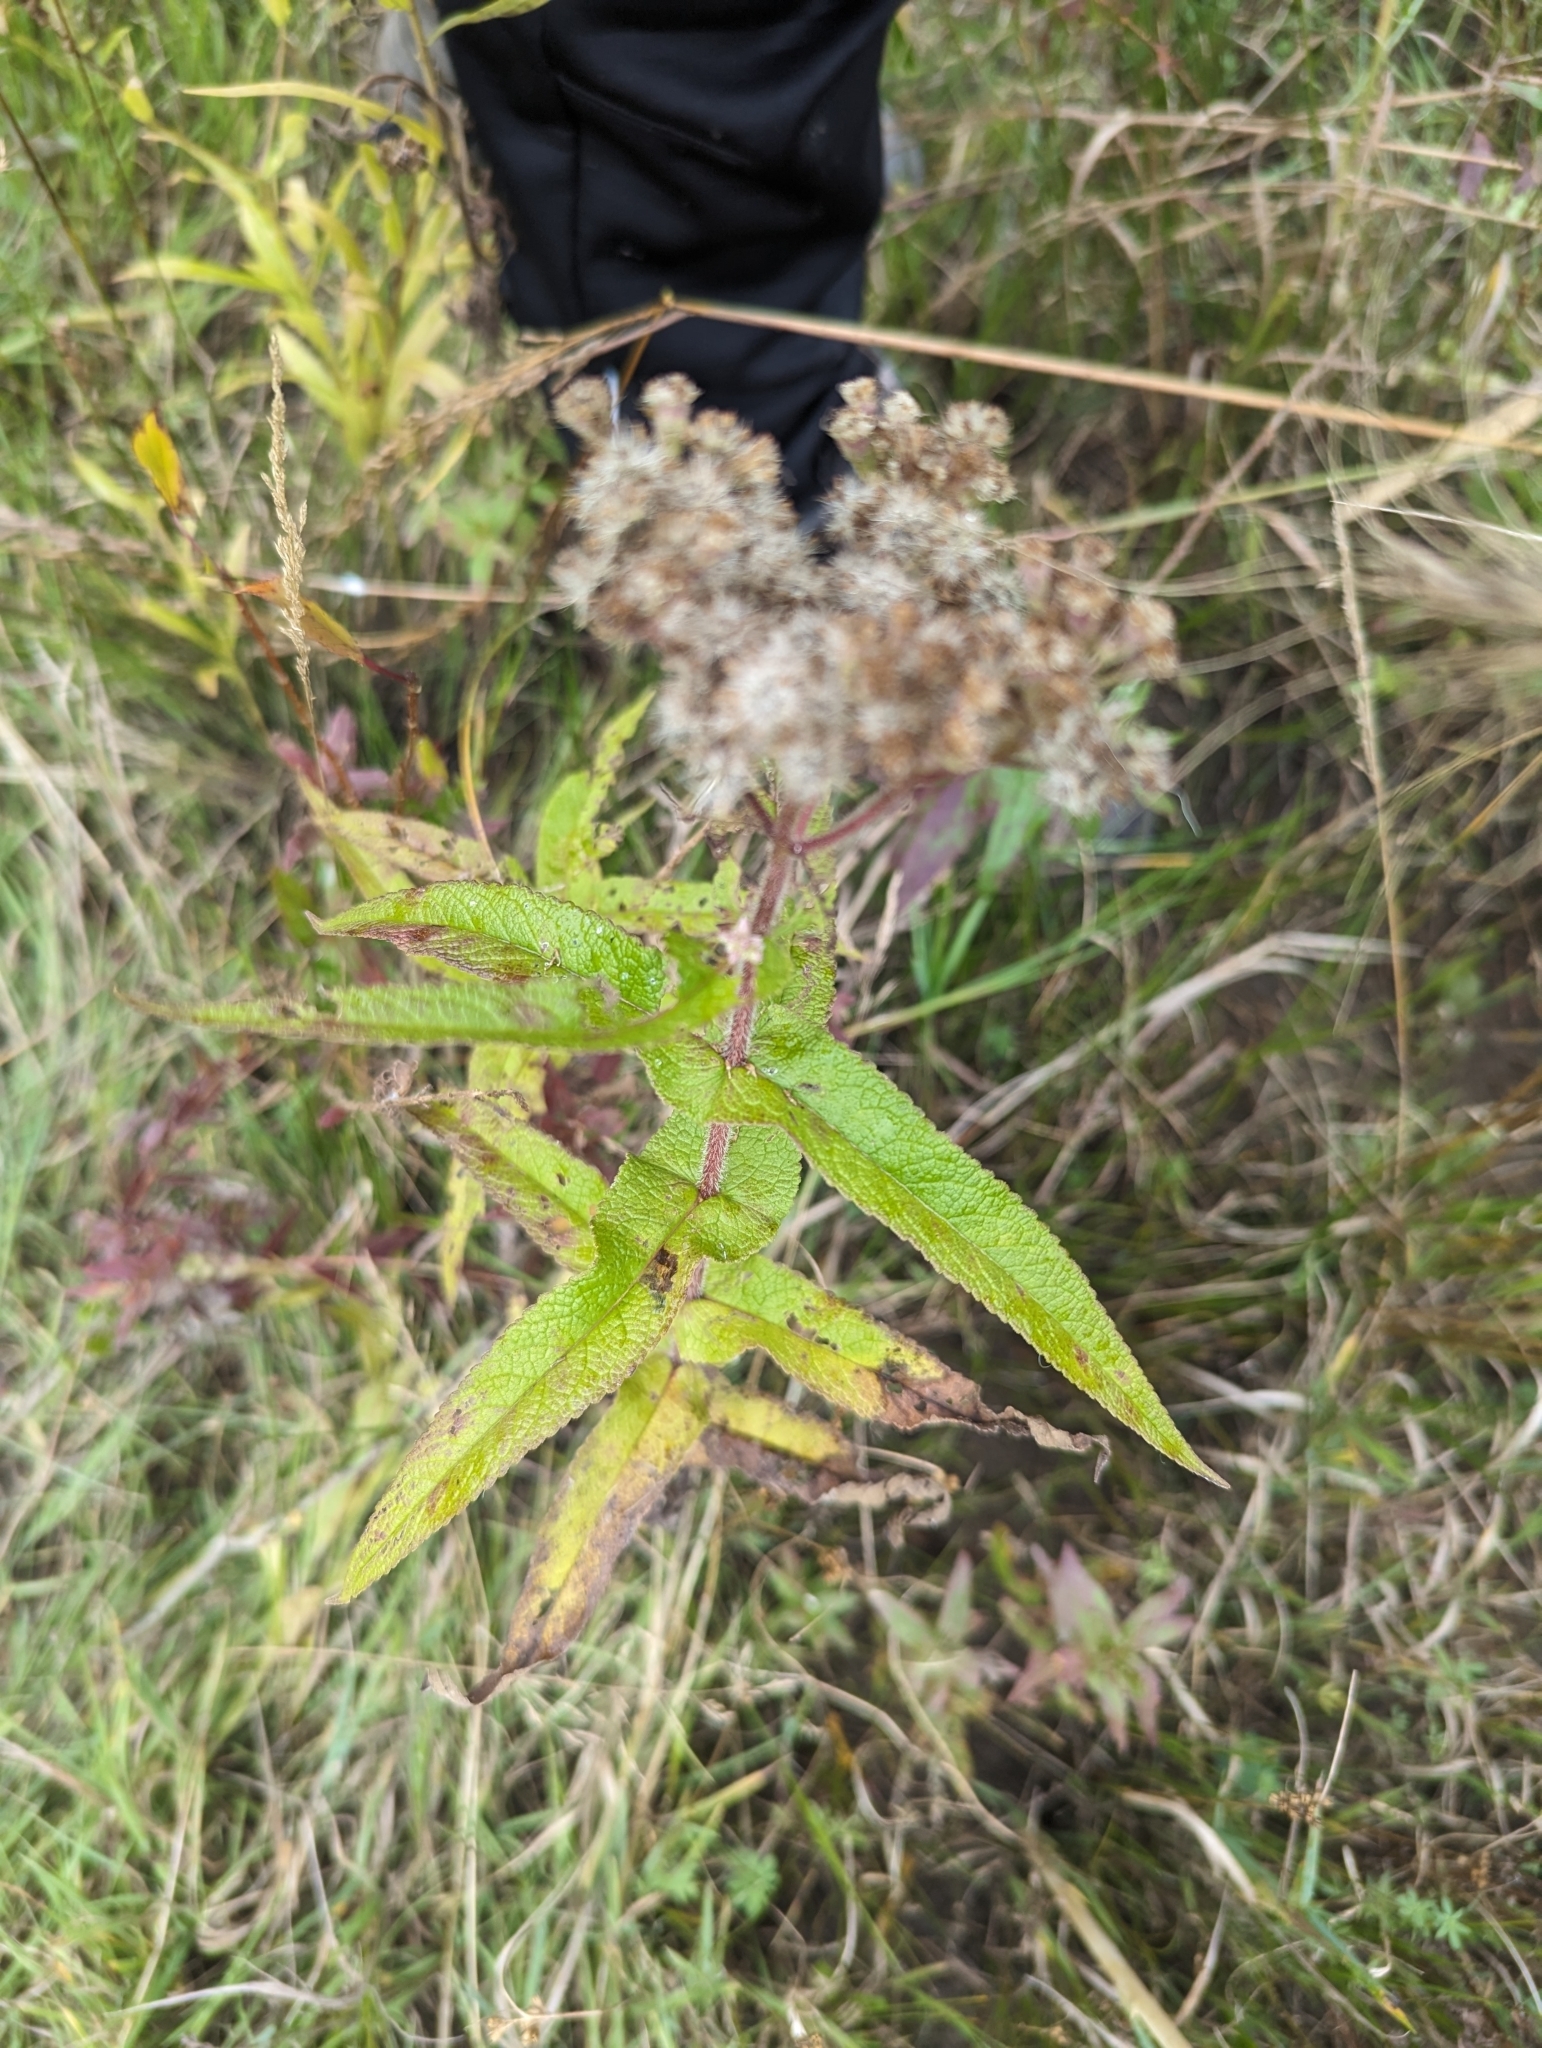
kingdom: Plantae
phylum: Tracheophyta
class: Magnoliopsida
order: Asterales
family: Asteraceae
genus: Eupatorium
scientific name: Eupatorium perfoliatum
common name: Boneset
